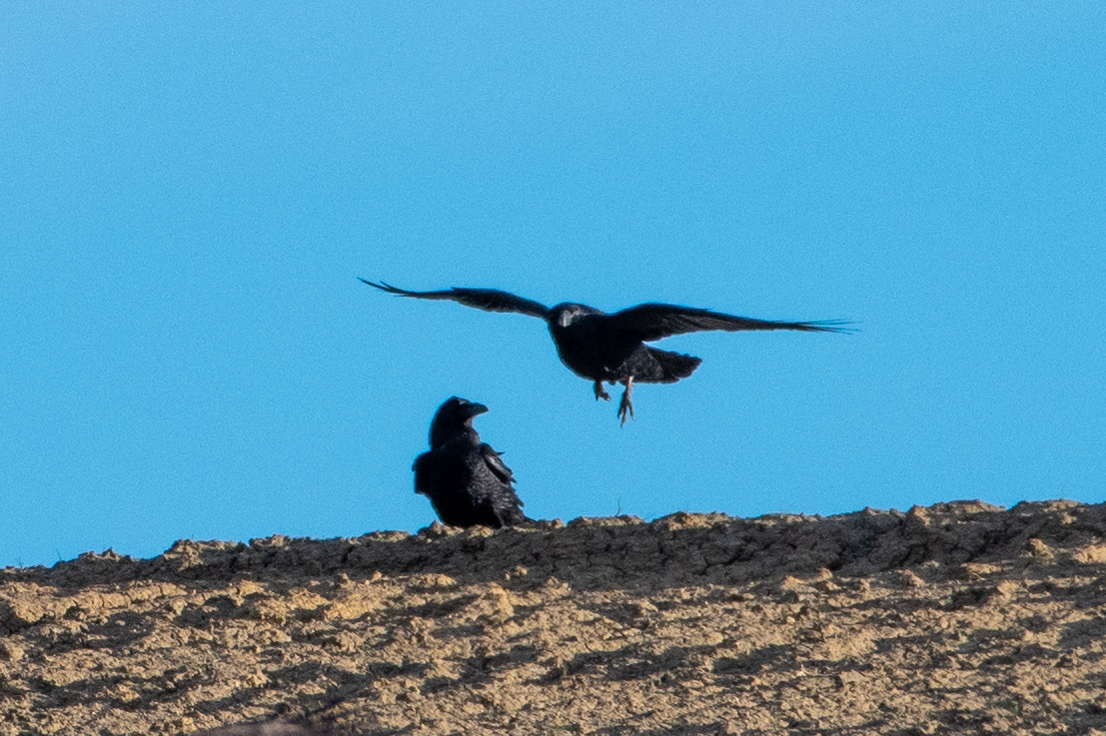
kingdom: Animalia
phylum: Chordata
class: Aves
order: Passeriformes
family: Corvidae
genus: Corvus
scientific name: Corvus corax
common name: Common raven
